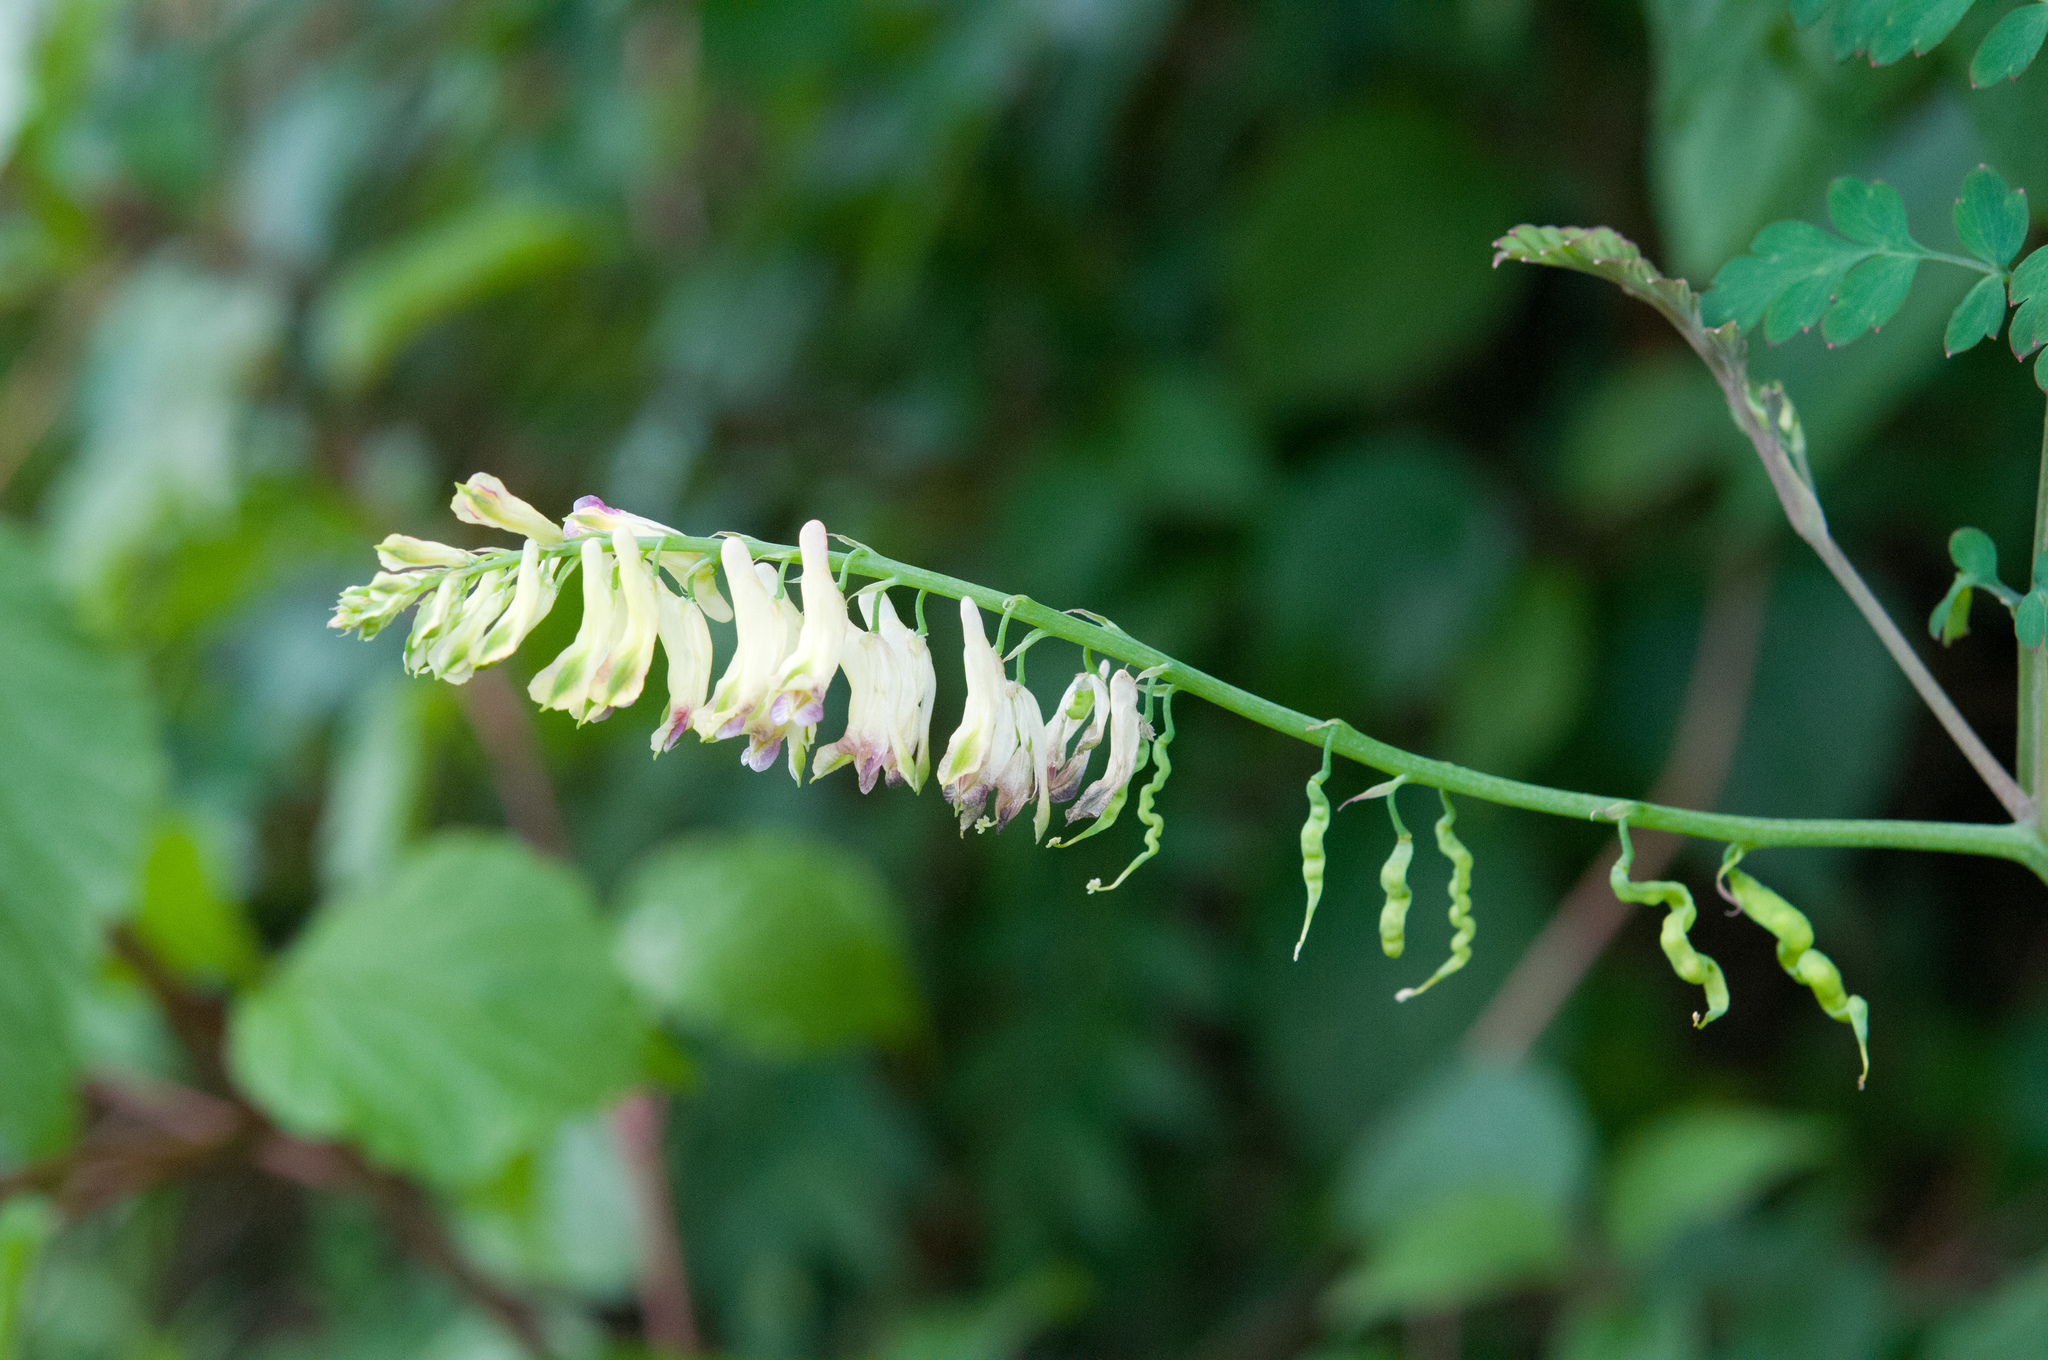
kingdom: Plantae
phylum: Tracheophyta
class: Magnoliopsida
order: Ranunculales
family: Papaveraceae
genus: Corydalis
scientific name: Corydalis ophiocarpa
